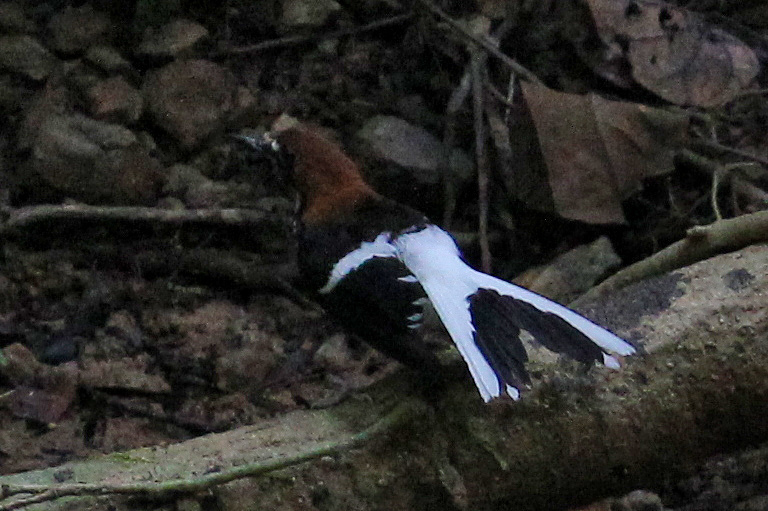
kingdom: Animalia
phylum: Chordata
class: Aves
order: Passeriformes
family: Muscicapidae
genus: Enicurus
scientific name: Enicurus ruficapillus
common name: Chestnut-naped forktail
